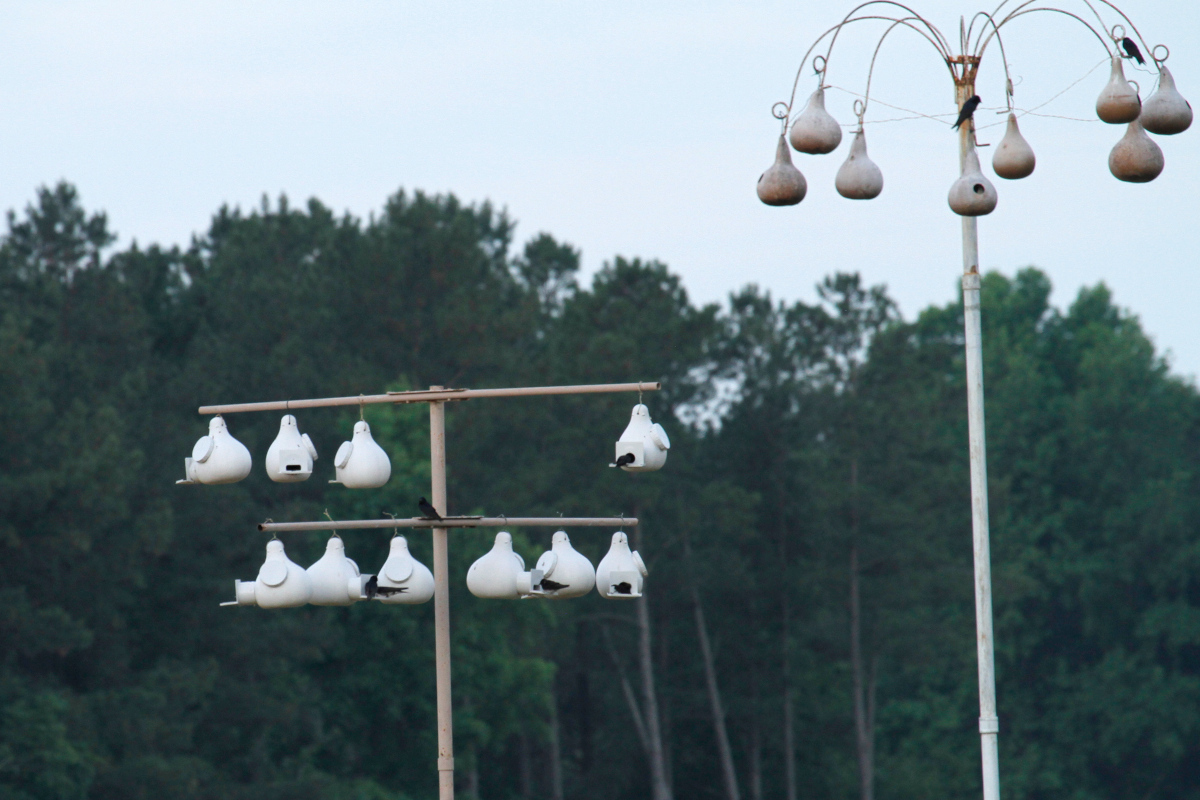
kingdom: Animalia
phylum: Chordata
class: Aves
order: Passeriformes
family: Hirundinidae
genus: Progne
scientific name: Progne subis
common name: Purple martin
